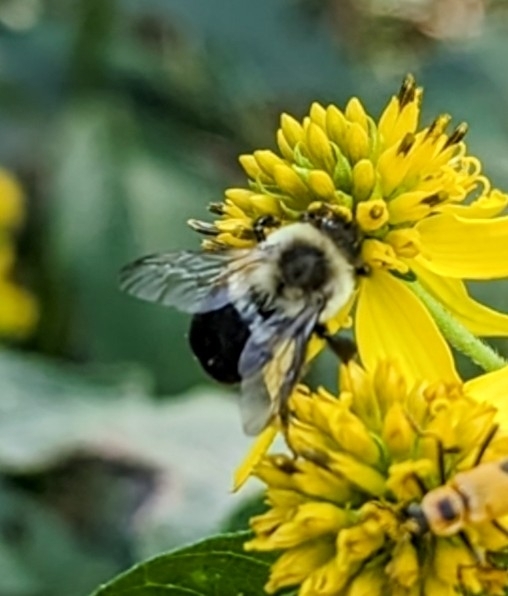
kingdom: Animalia
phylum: Arthropoda
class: Insecta
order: Hymenoptera
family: Apidae
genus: Bombus
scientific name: Bombus impatiens
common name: Common eastern bumble bee
